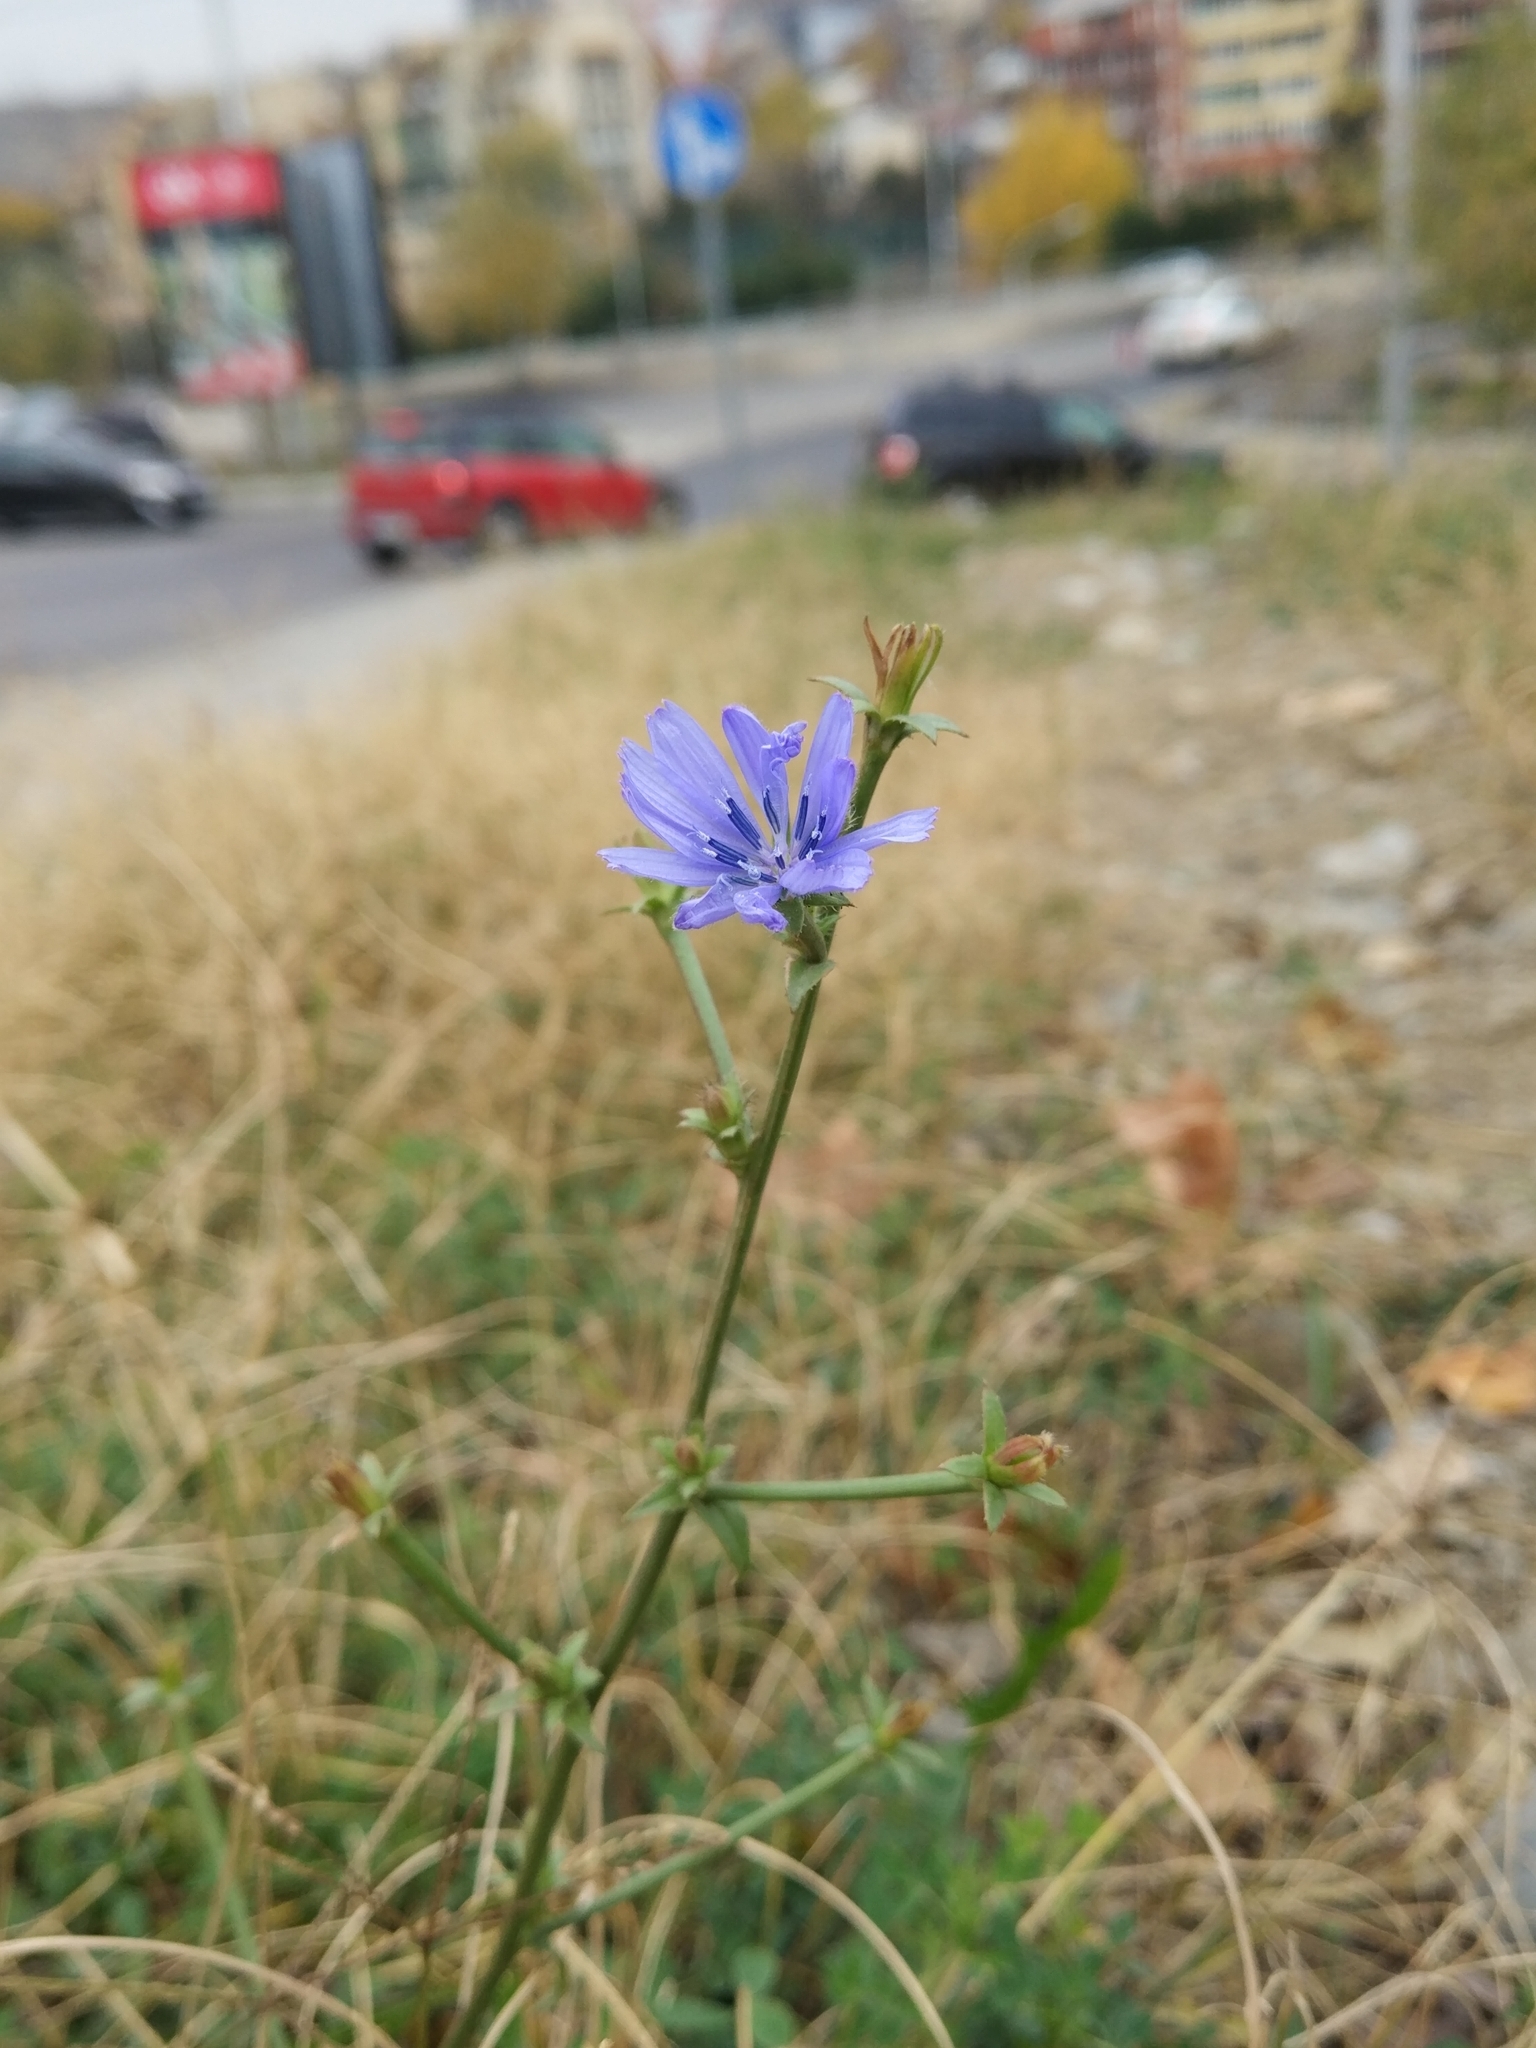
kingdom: Plantae
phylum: Tracheophyta
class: Magnoliopsida
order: Asterales
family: Asteraceae
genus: Cichorium
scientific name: Cichorium intybus
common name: Chicory
